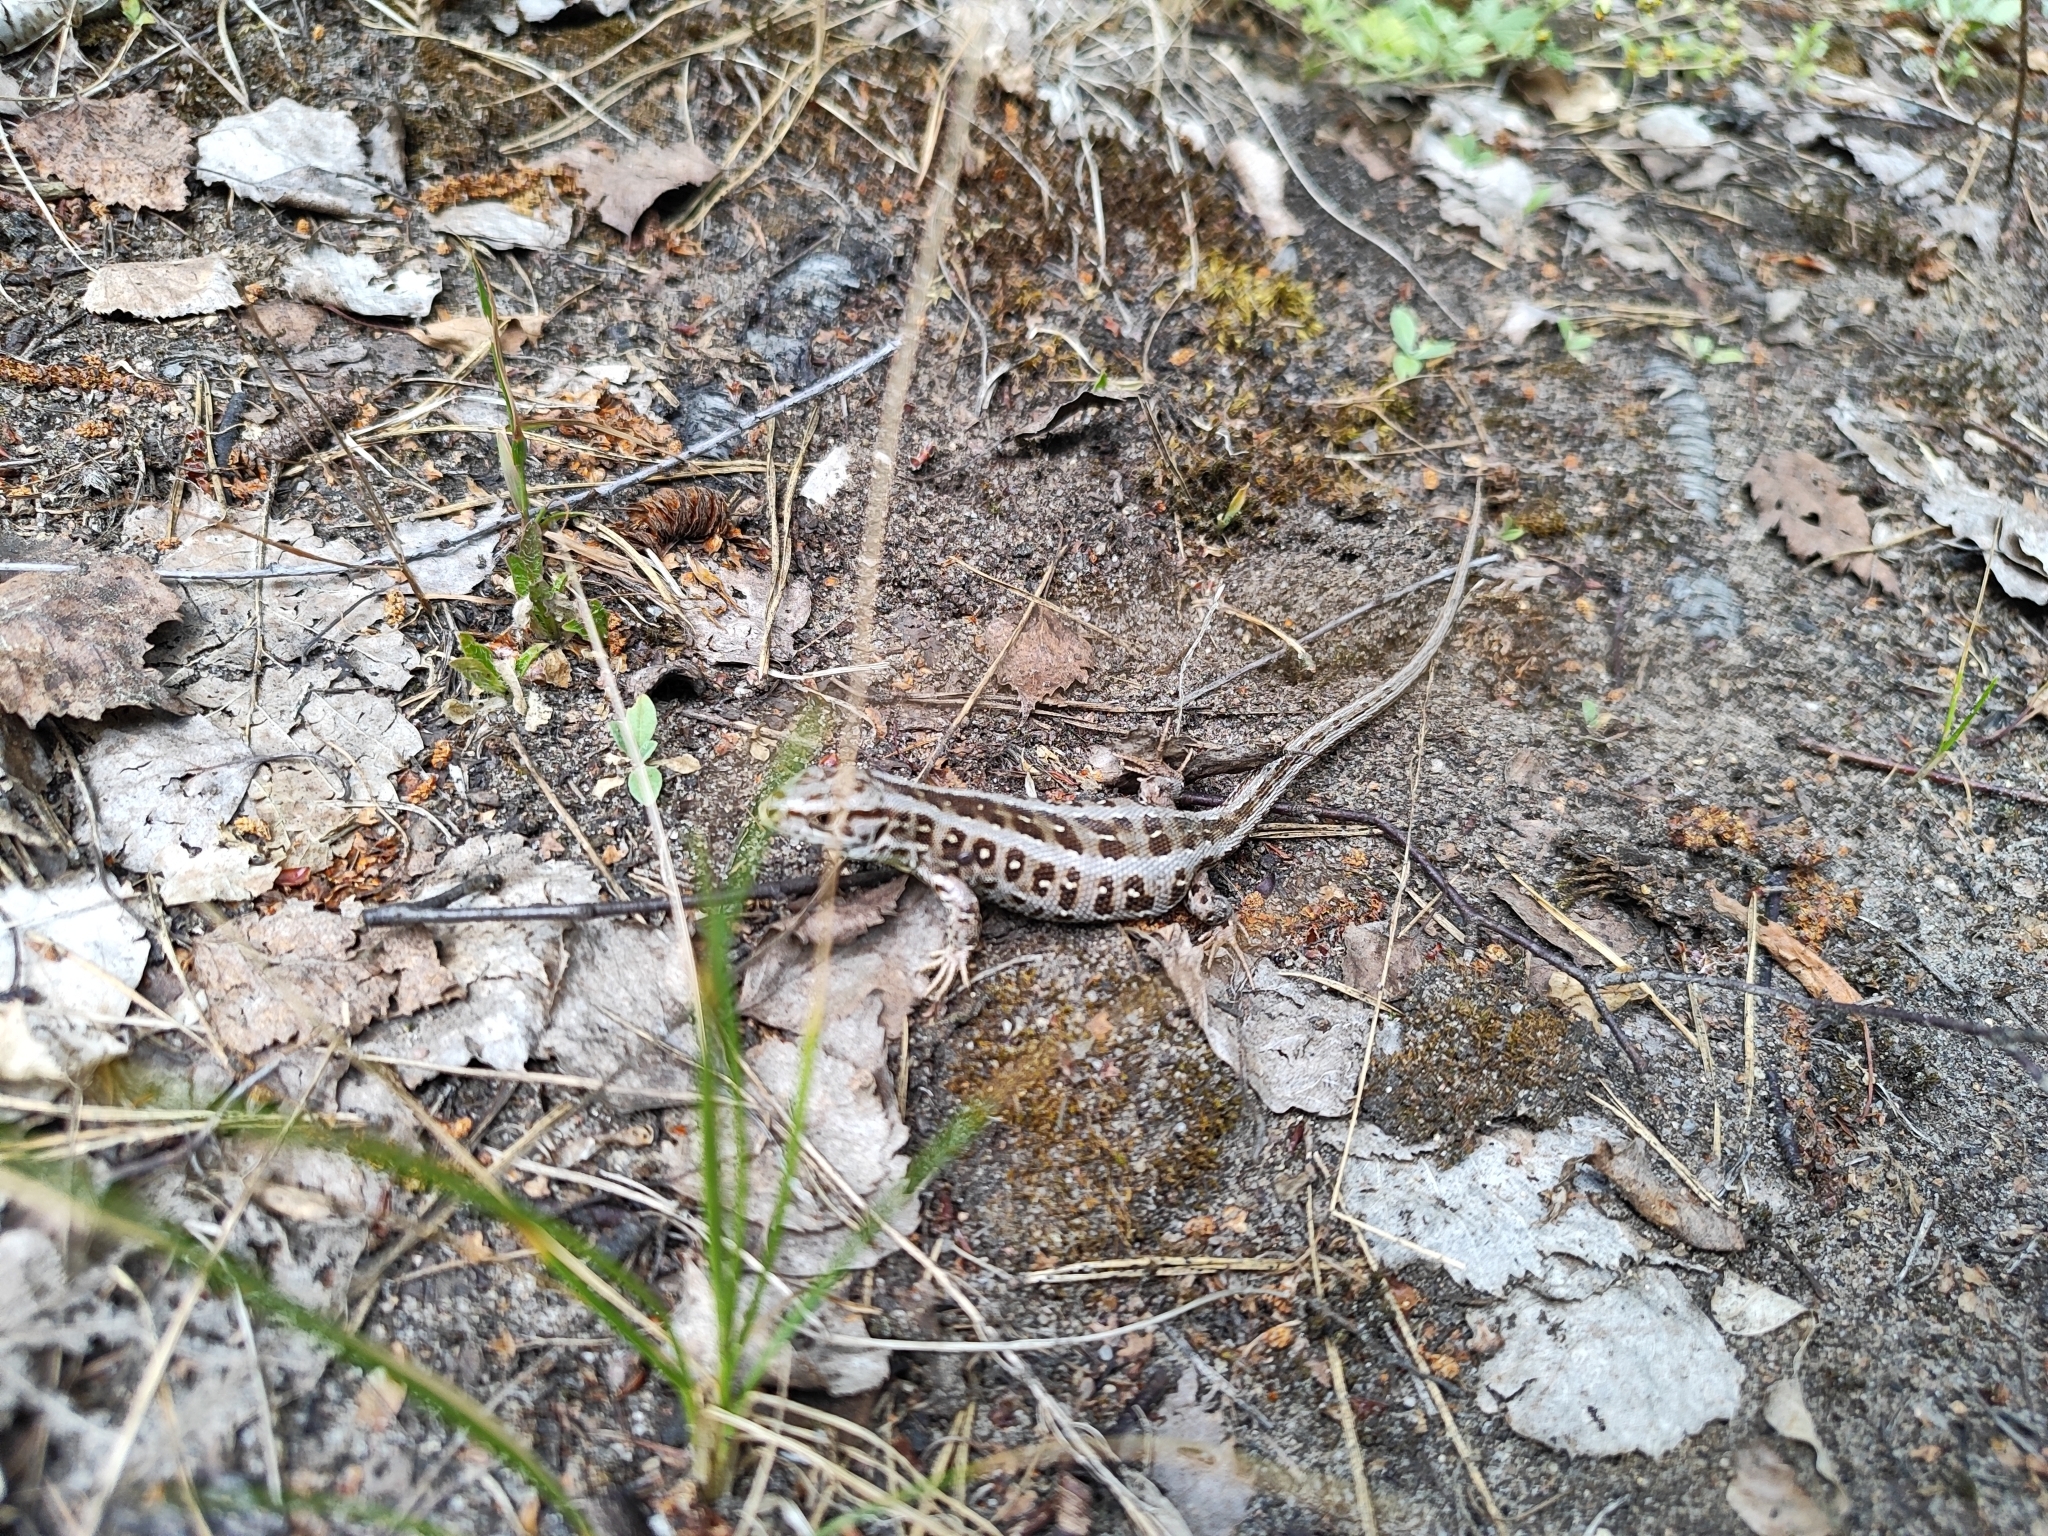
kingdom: Animalia
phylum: Chordata
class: Squamata
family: Lacertidae
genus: Lacerta
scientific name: Lacerta agilis
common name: Sand lizard
